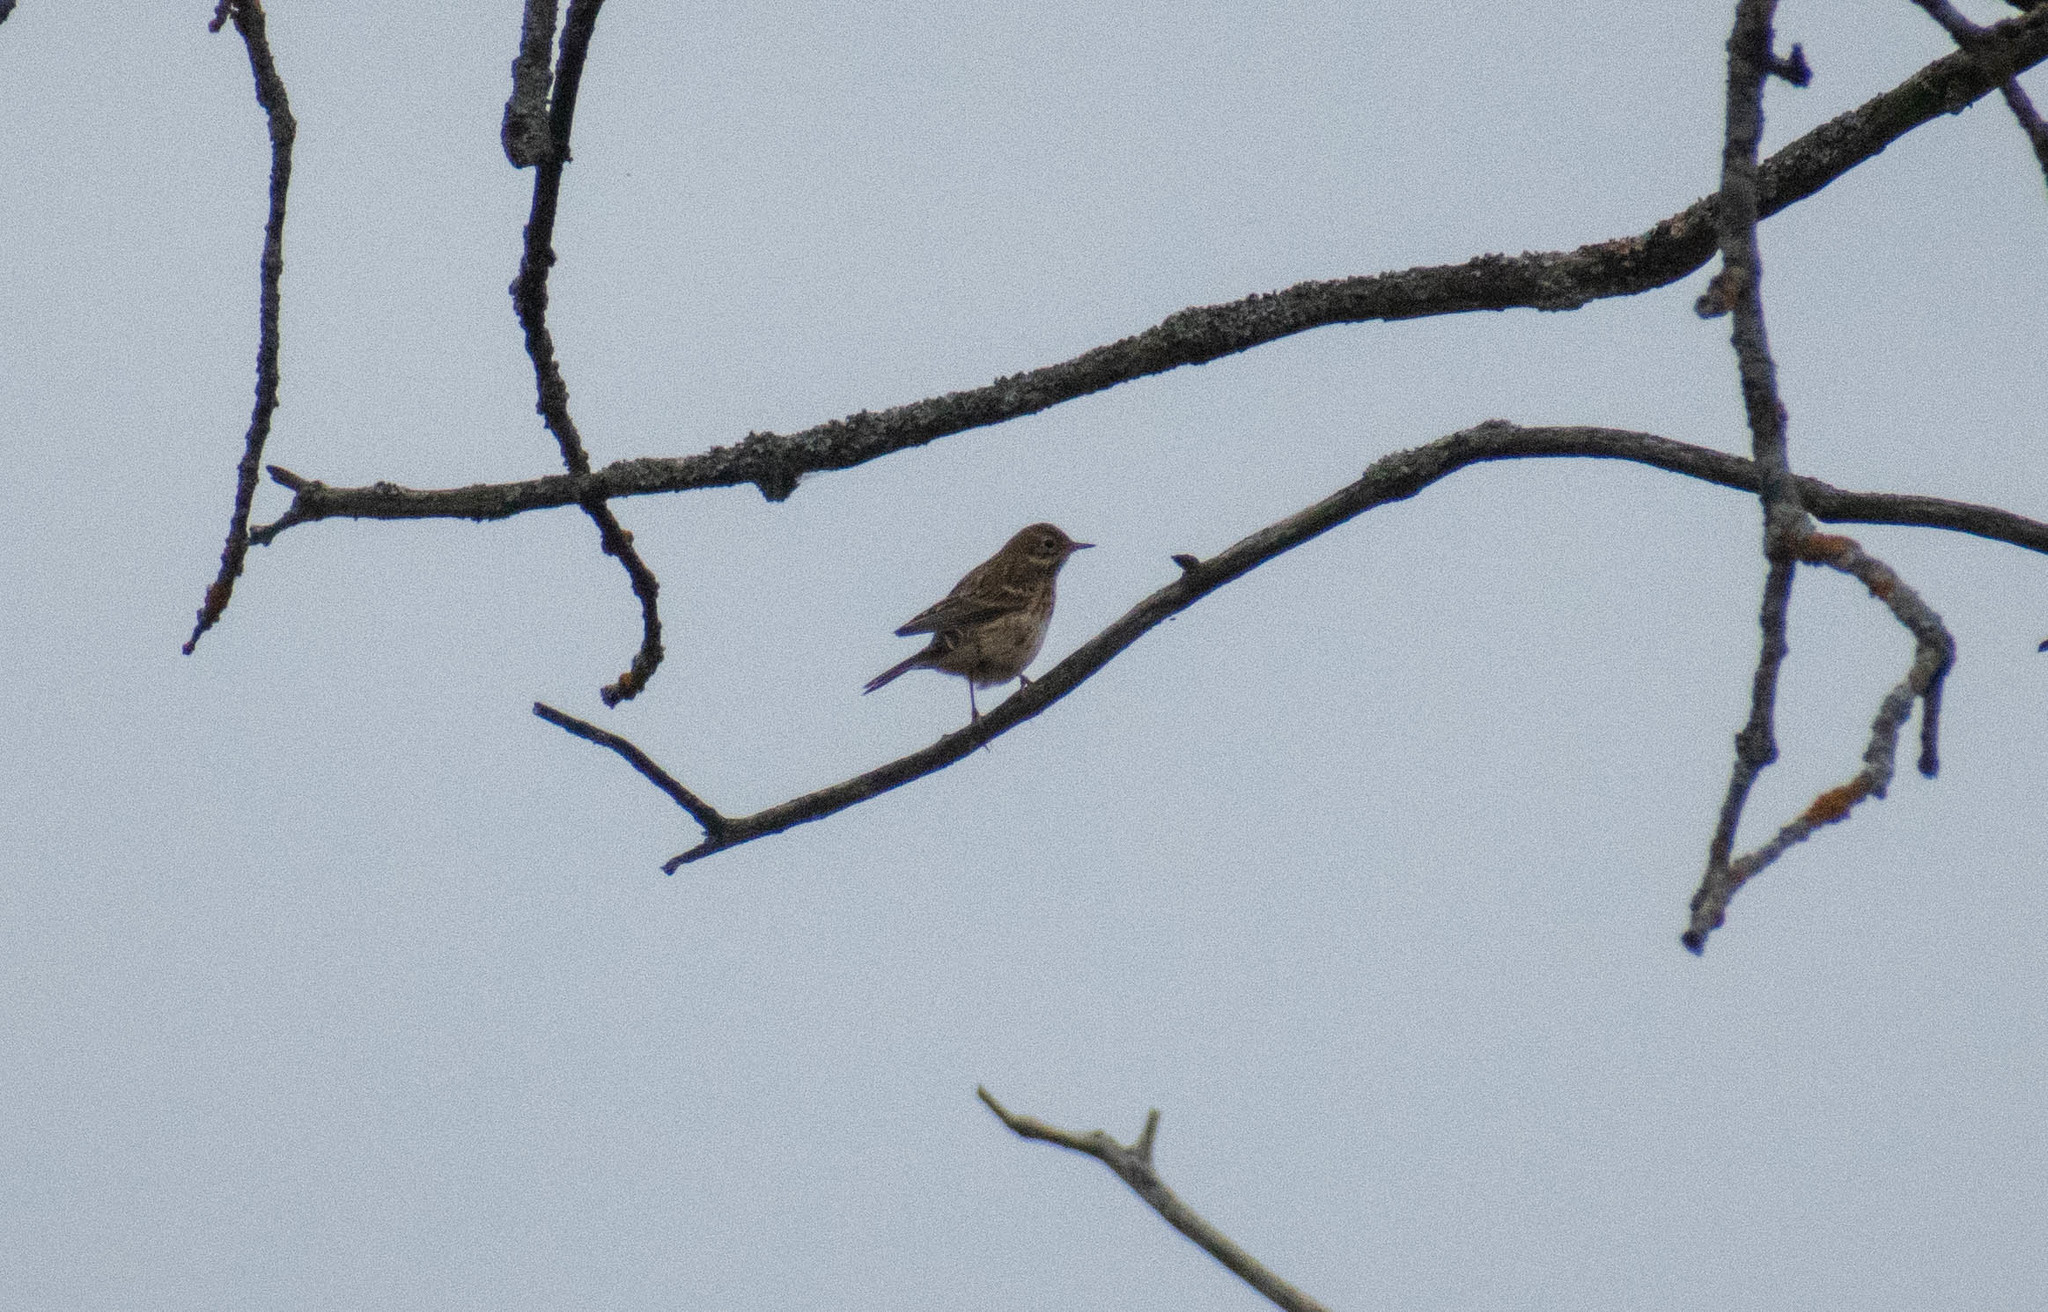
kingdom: Animalia
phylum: Chordata
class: Aves
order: Passeriformes
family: Motacillidae
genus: Anthus
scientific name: Anthus pratensis
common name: Meadow pipit
